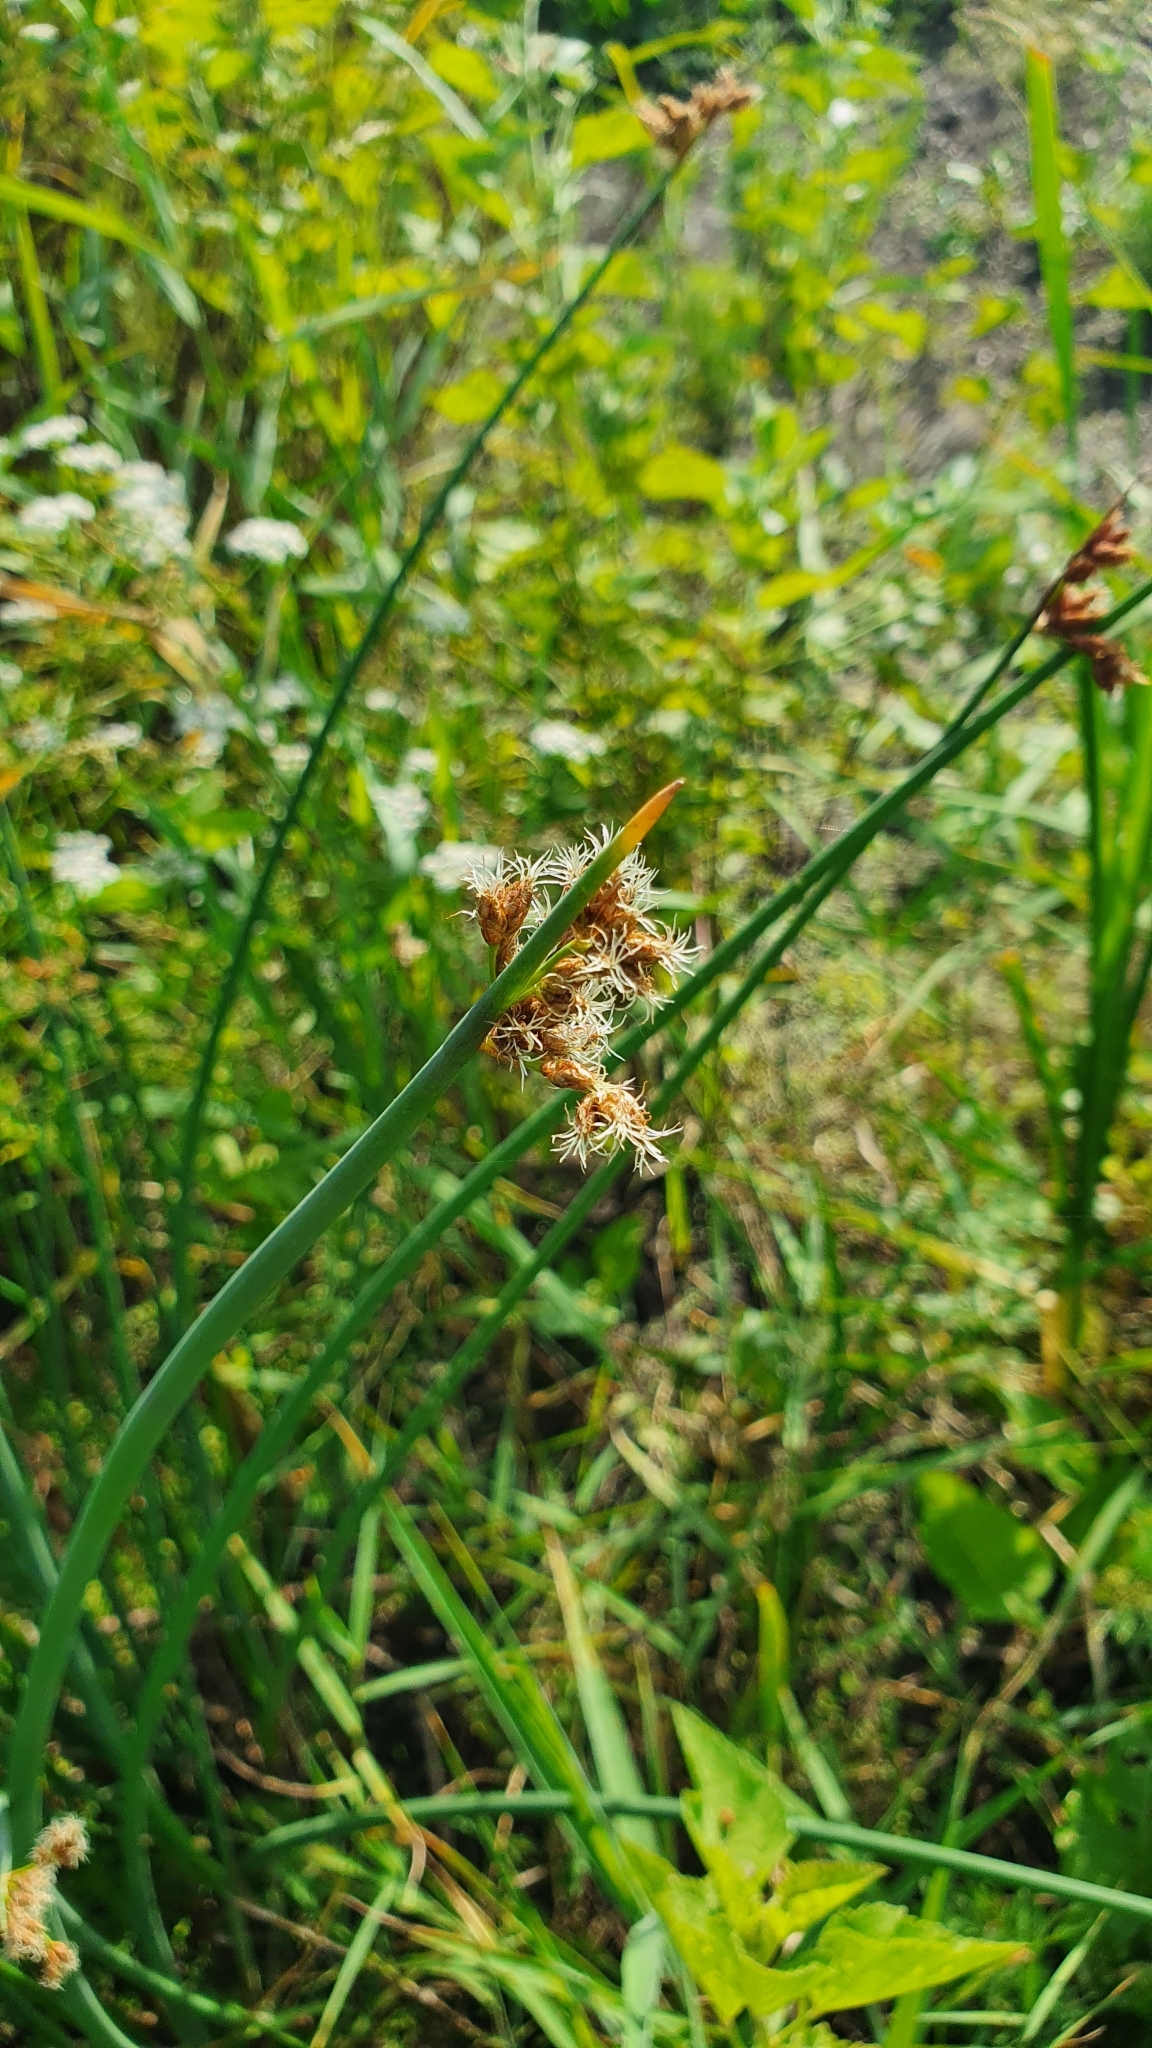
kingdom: Plantae
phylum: Tracheophyta
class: Liliopsida
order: Poales
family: Cyperaceae
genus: Schoenoplectus
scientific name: Schoenoplectus lacustris
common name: Common club-rush
